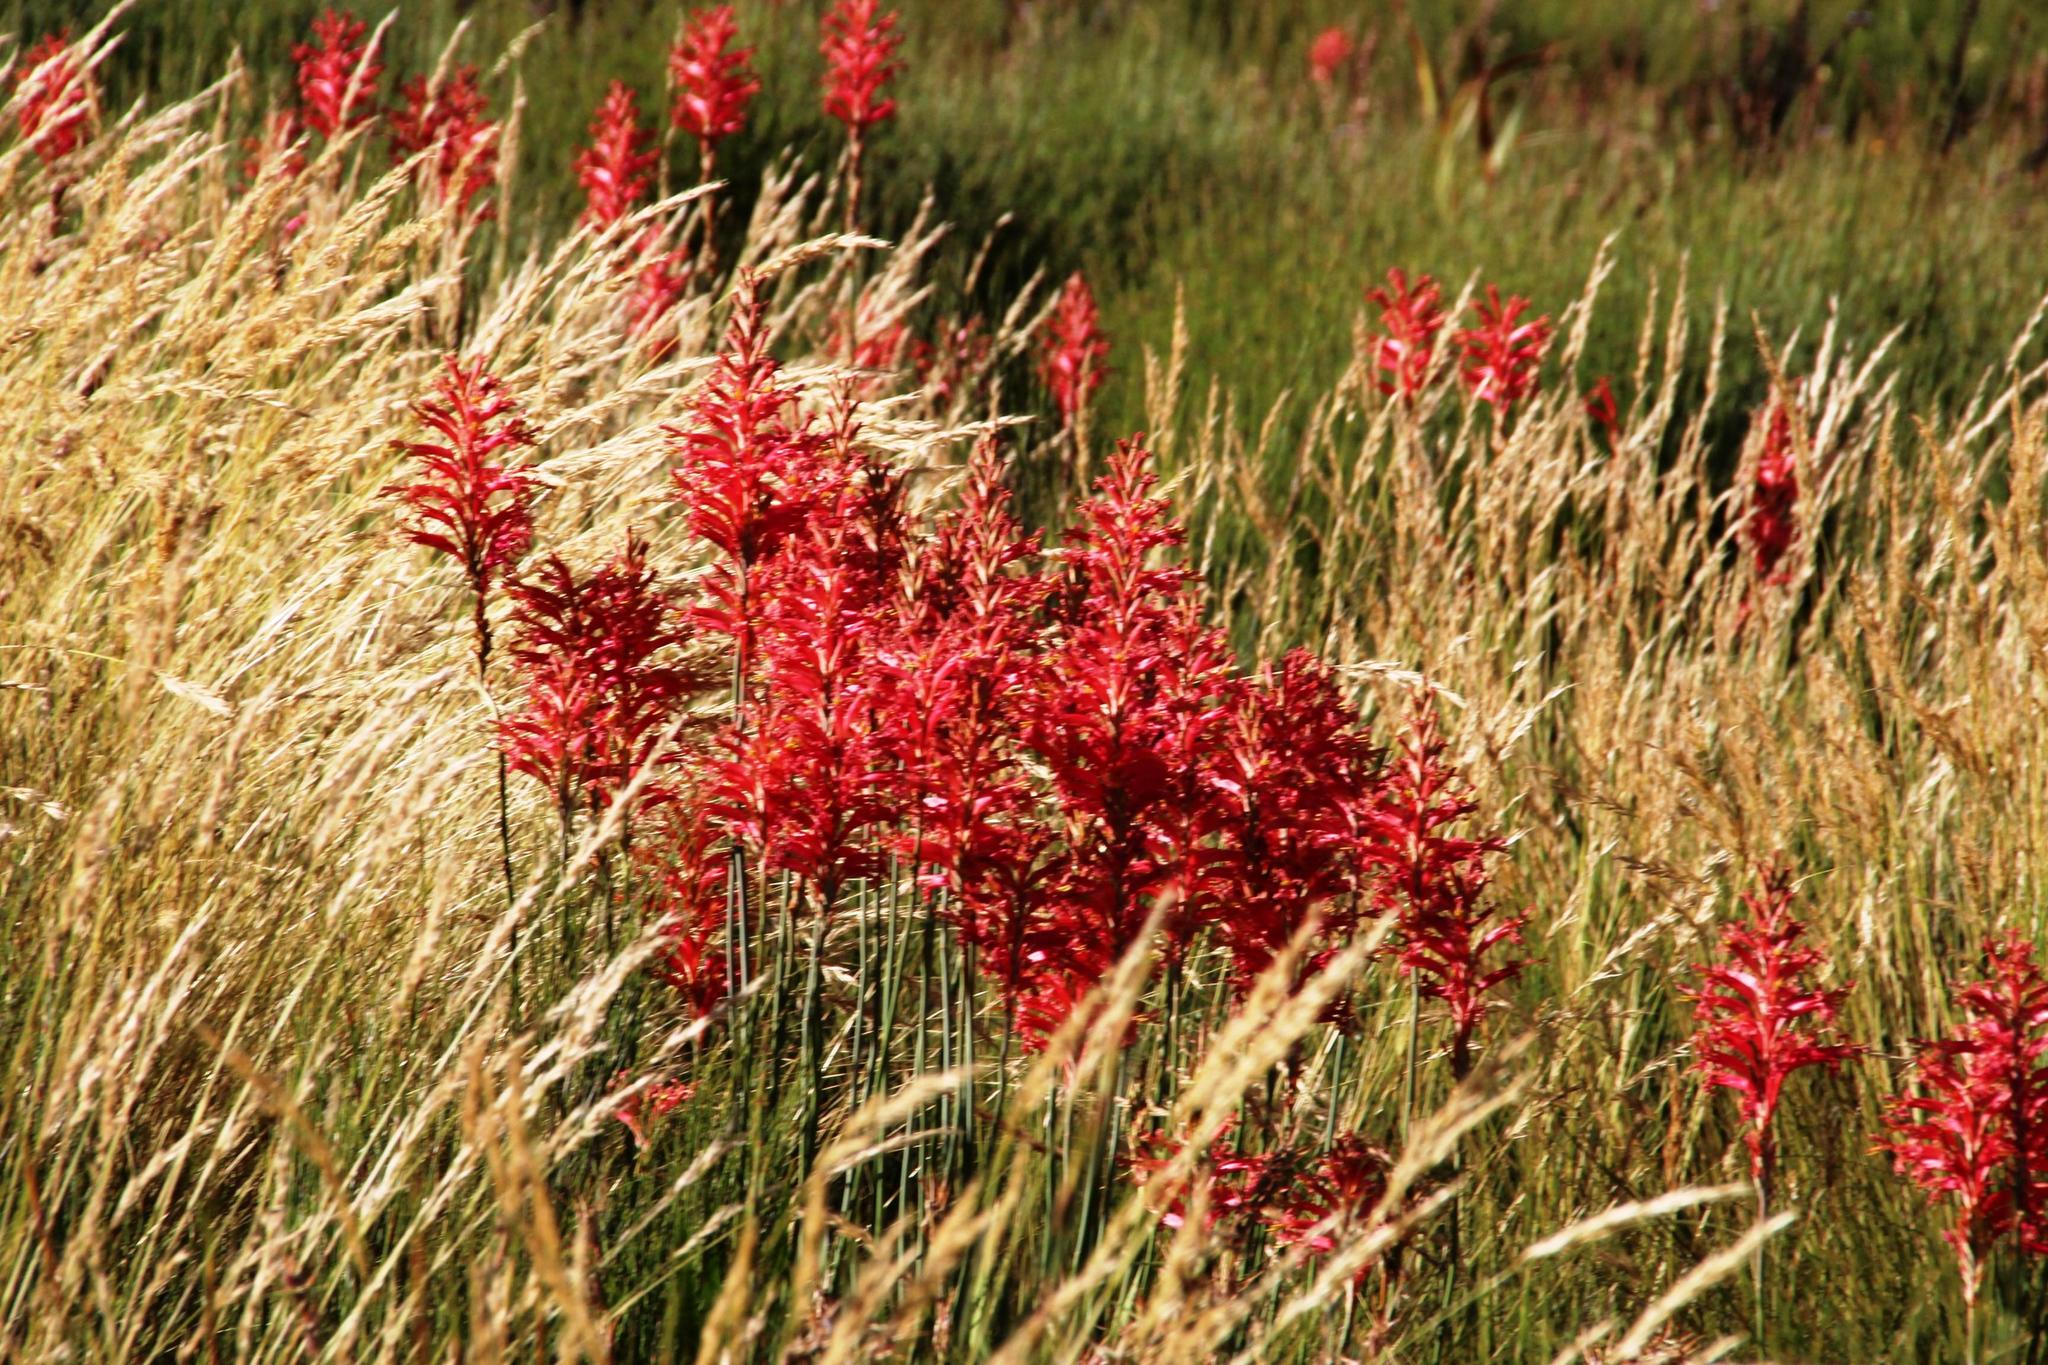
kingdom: Plantae
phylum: Tracheophyta
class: Liliopsida
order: Asparagales
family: Iridaceae
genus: Tritoniopsis
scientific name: Tritoniopsis antholyza
